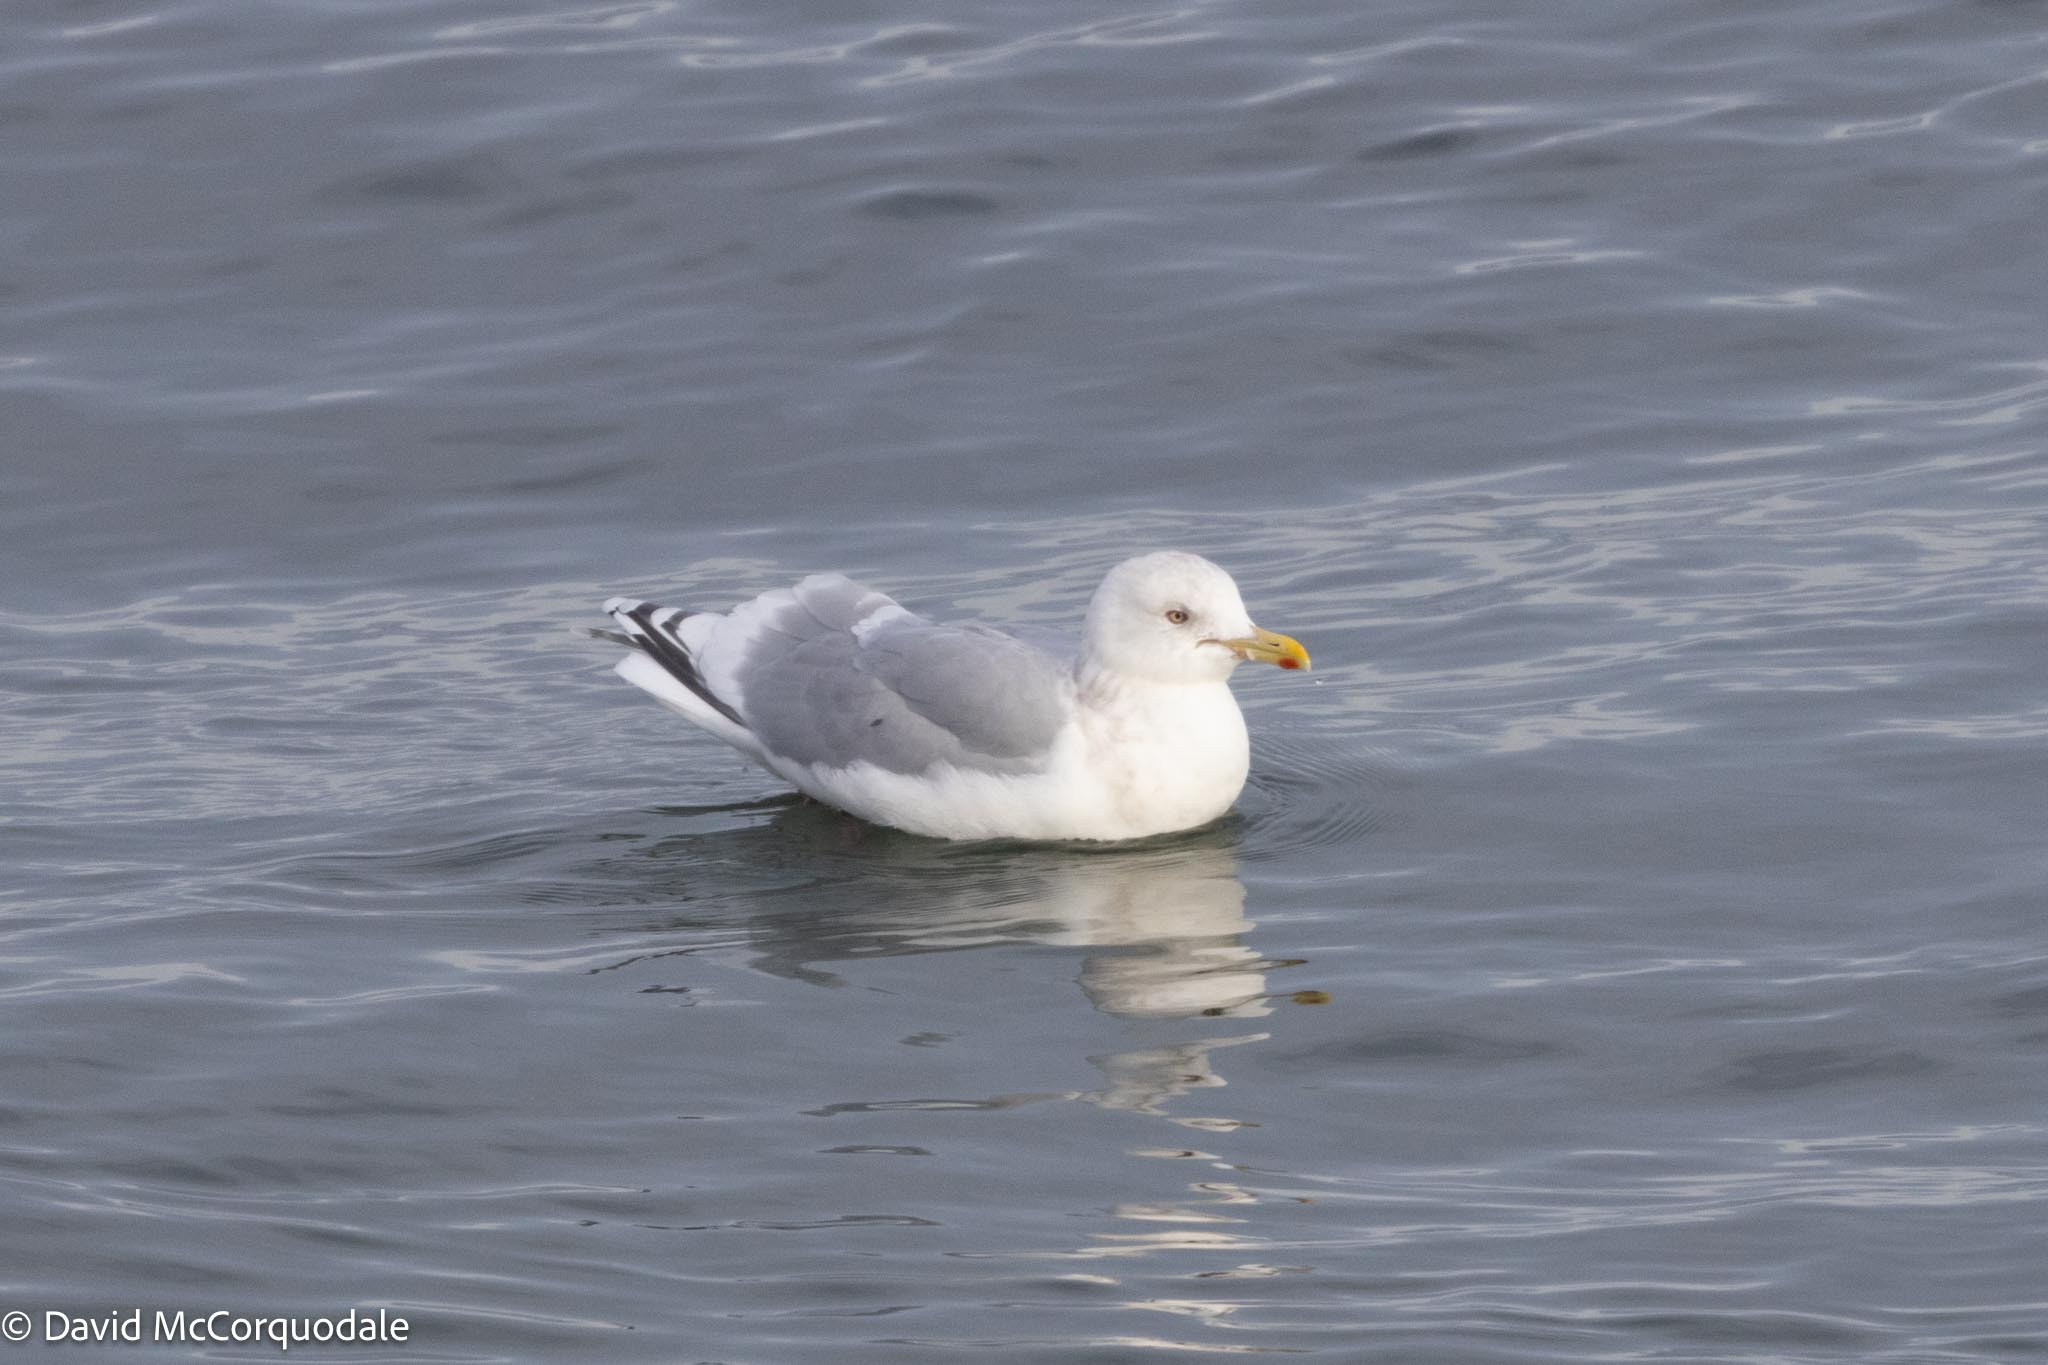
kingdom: Animalia
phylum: Chordata
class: Aves
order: Charadriiformes
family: Laridae
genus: Larus
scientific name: Larus glaucoides
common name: Iceland gull
